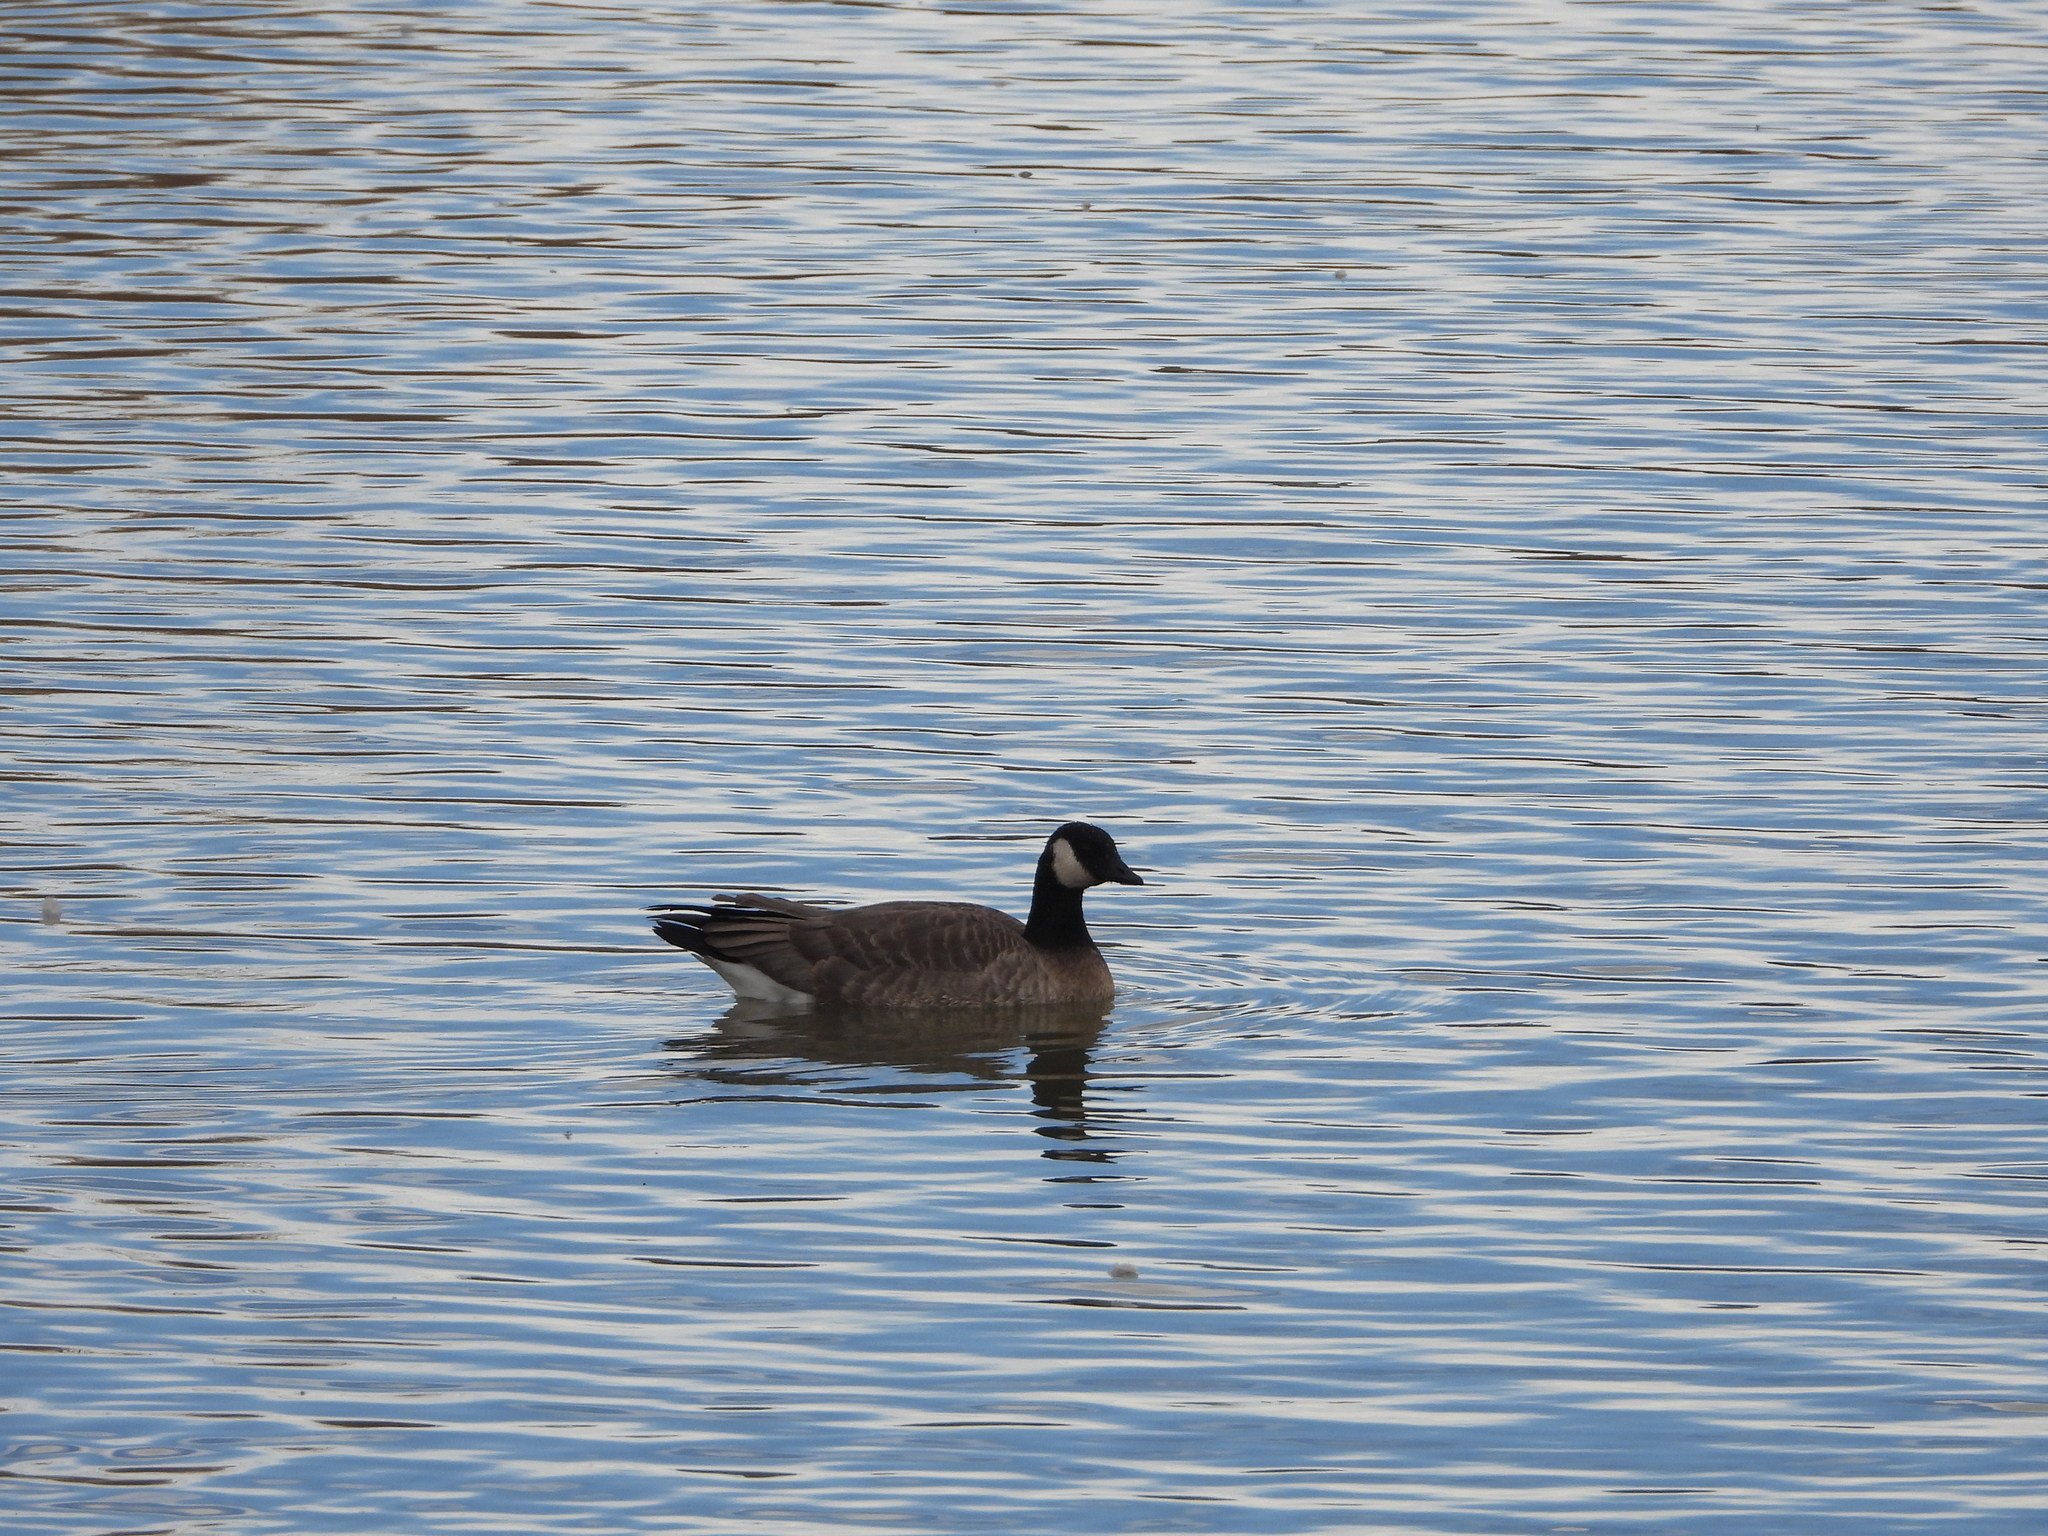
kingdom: Animalia
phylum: Chordata
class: Aves
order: Anseriformes
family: Anatidae
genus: Branta
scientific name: Branta hutchinsii
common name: Cackling goose
